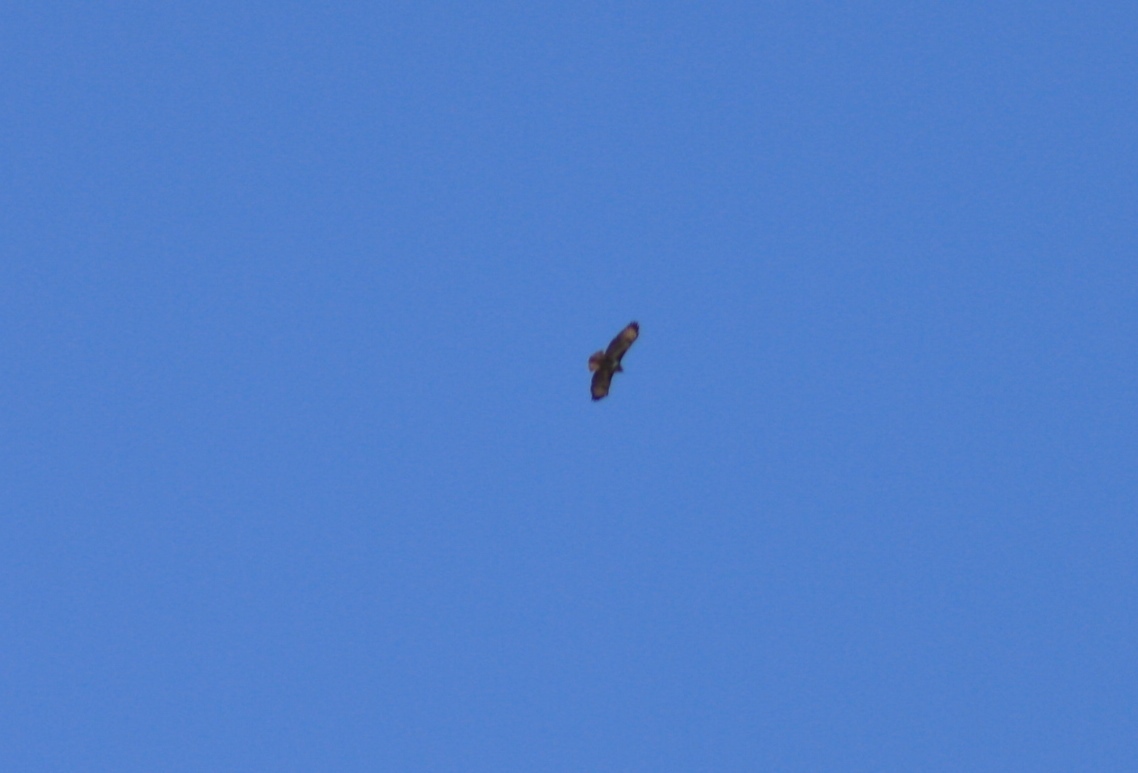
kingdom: Animalia
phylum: Chordata
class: Aves
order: Accipitriformes
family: Accipitridae
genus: Buteo
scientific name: Buteo buteo
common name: Common buzzard
